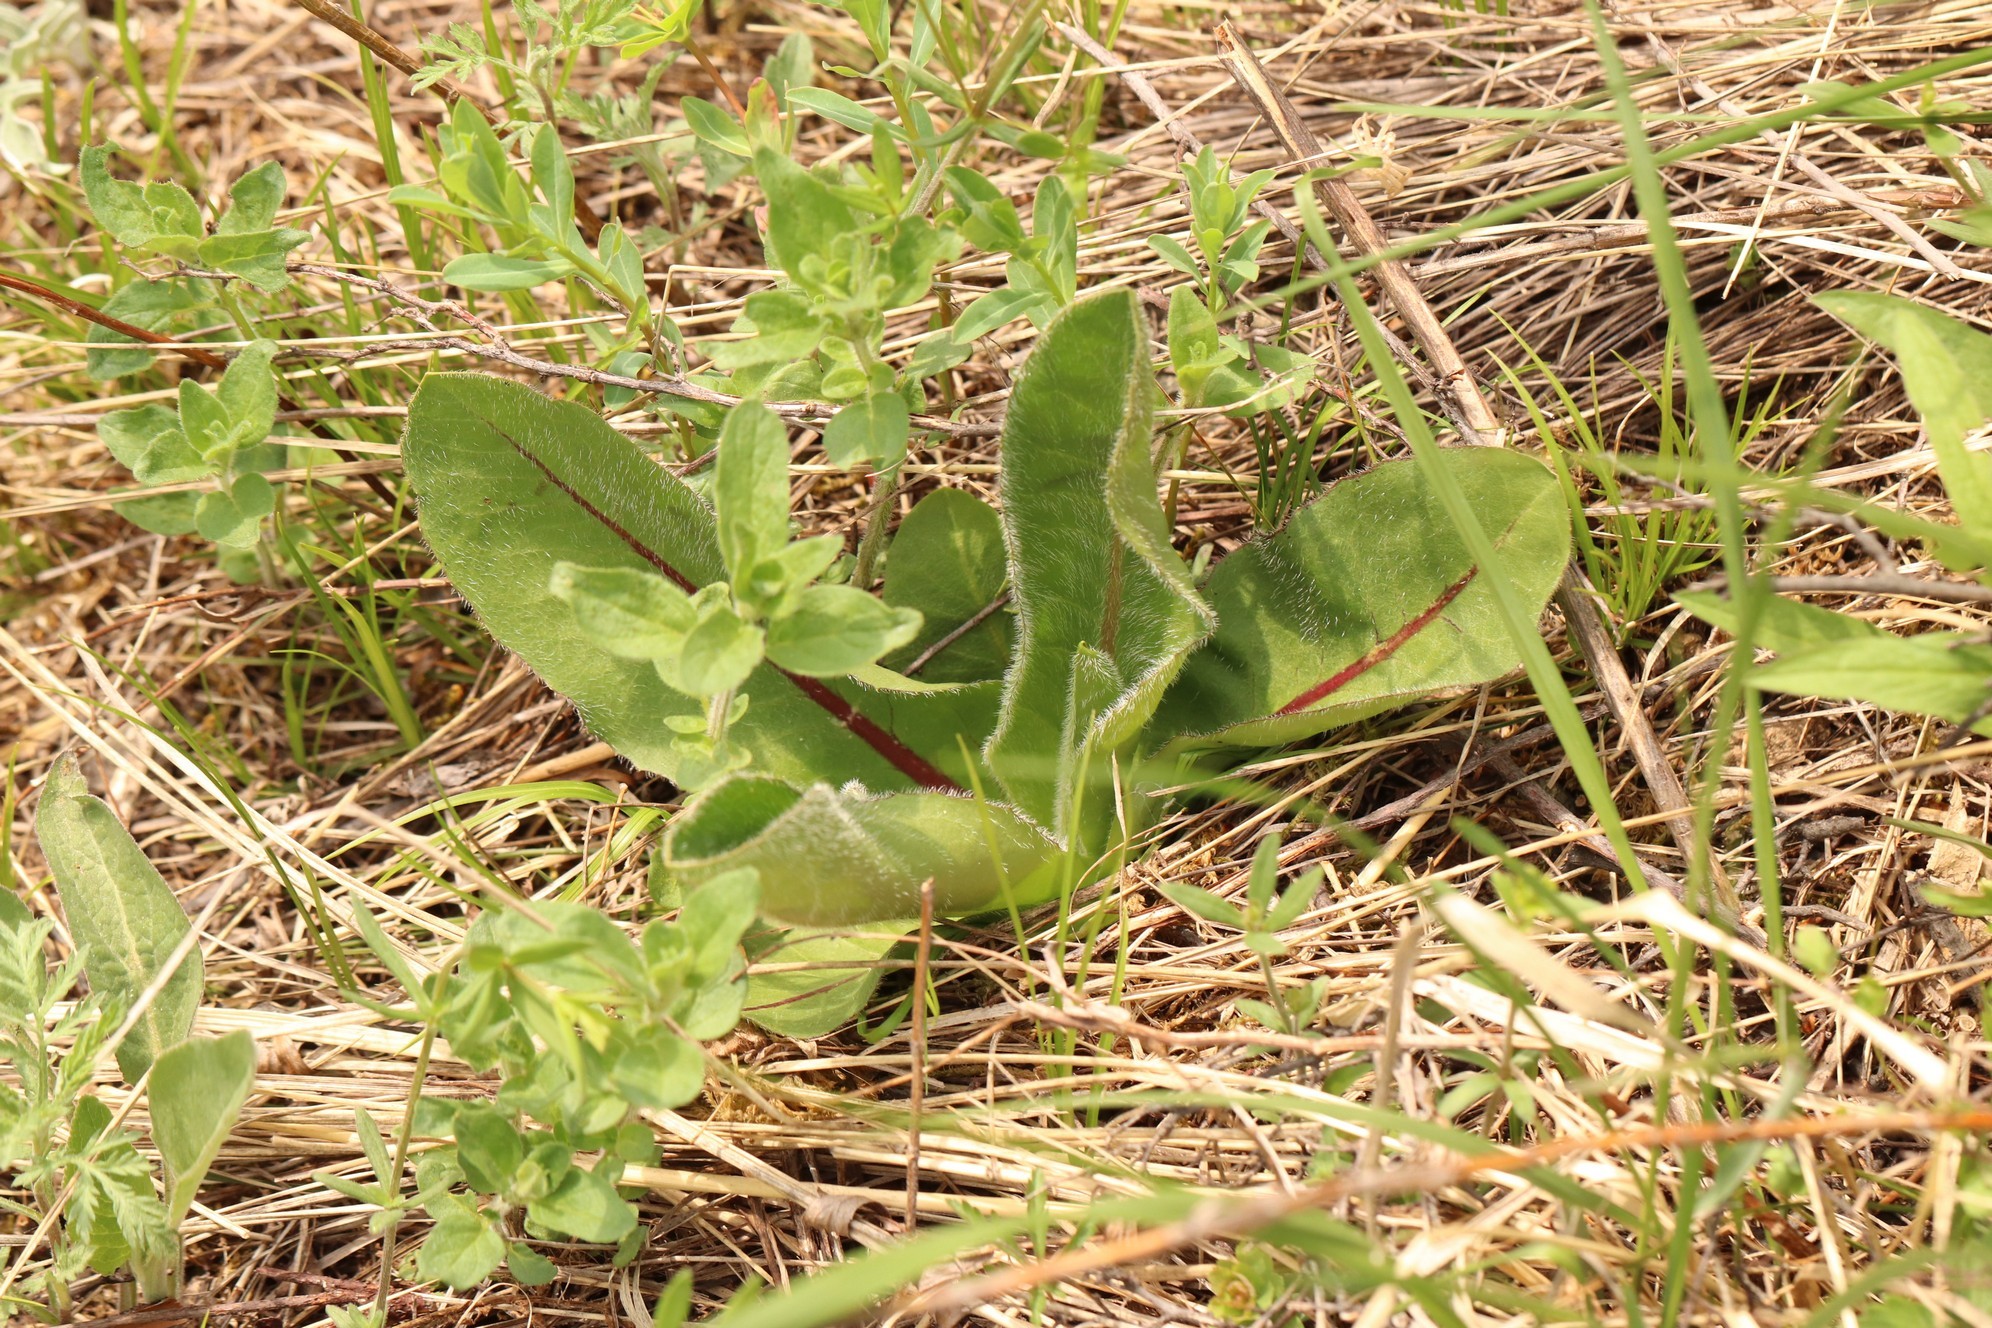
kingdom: Plantae
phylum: Tracheophyta
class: Magnoliopsida
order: Asterales
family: Asteraceae
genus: Trommsdorffia
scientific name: Trommsdorffia maculata
